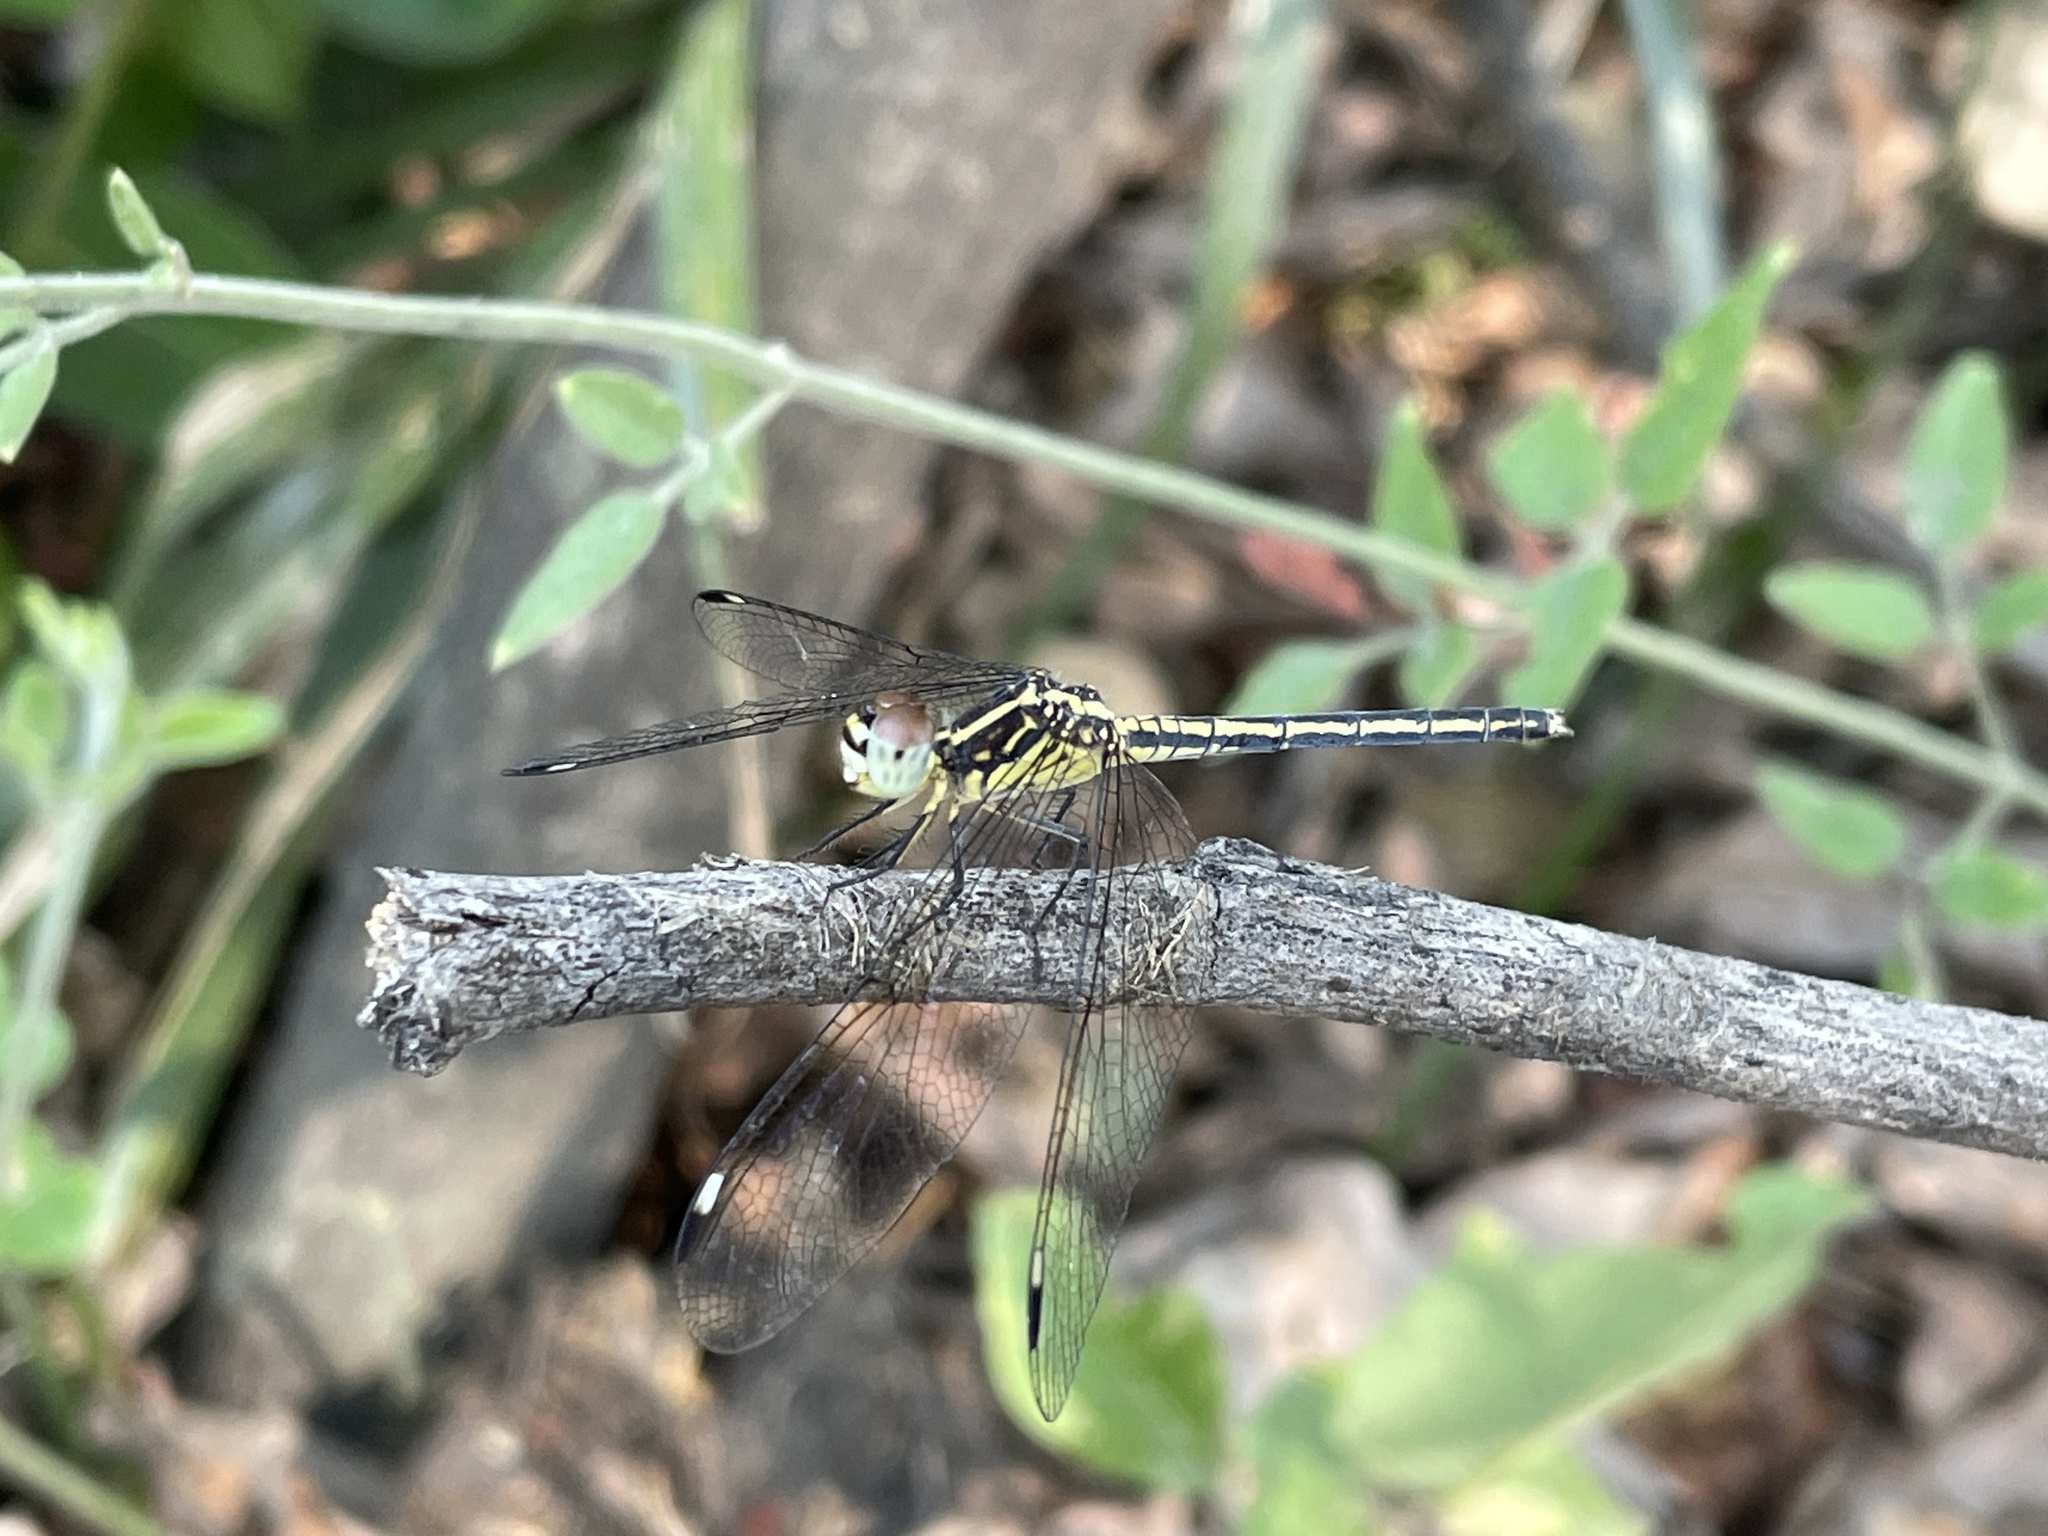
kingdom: Animalia
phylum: Arthropoda
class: Insecta
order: Odonata
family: Libellulidae
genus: Hemistigma
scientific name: Hemistigma albipunctum
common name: African pied-spot
